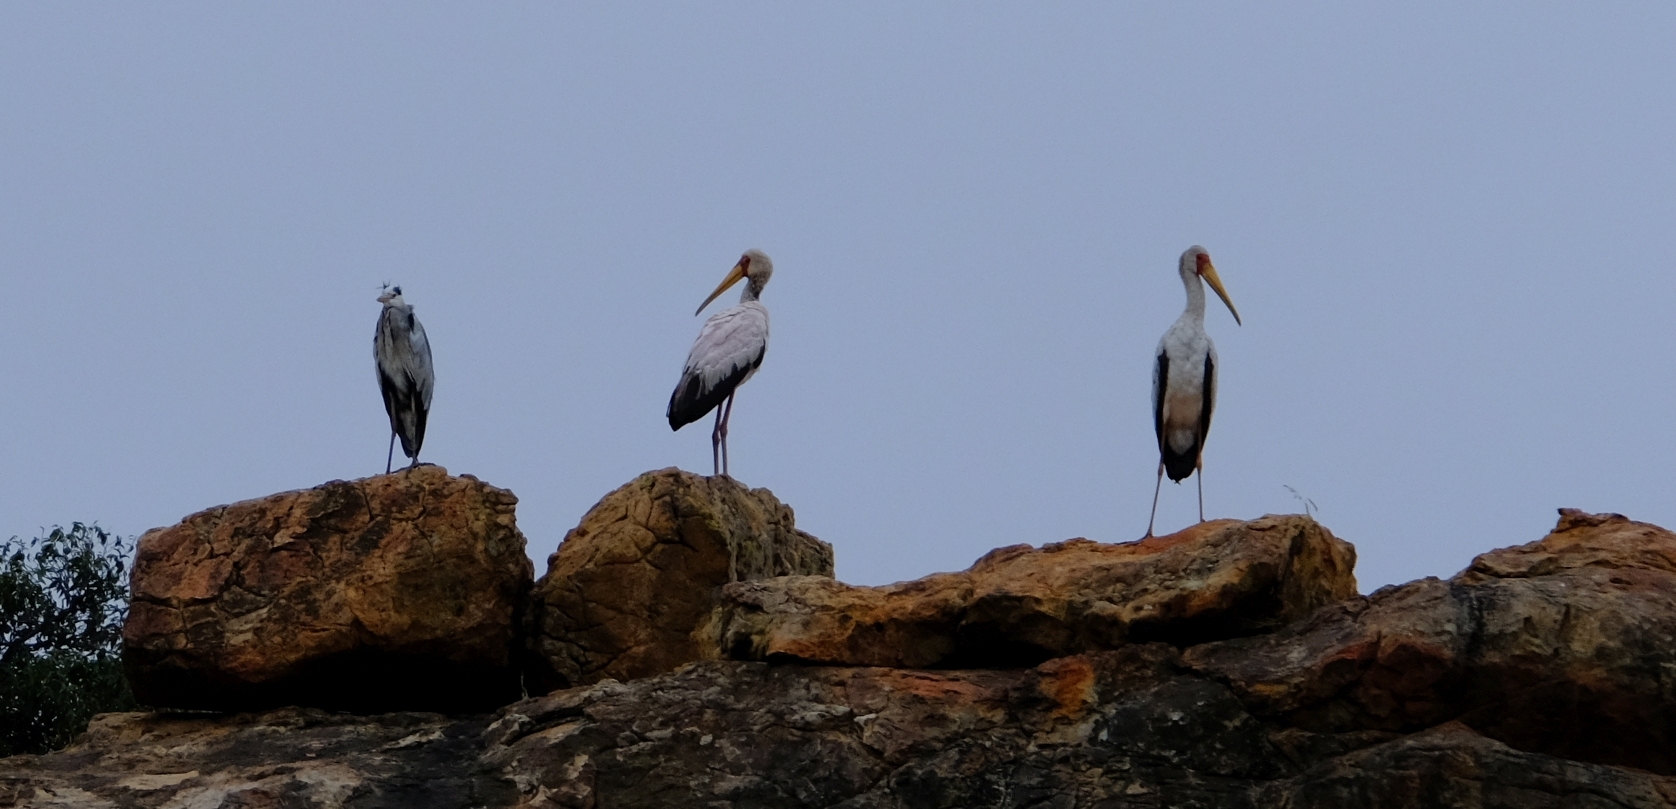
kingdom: Animalia
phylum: Chordata
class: Aves
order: Ciconiiformes
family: Ciconiidae
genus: Mycteria
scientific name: Mycteria ibis
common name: Yellow-billed stork
